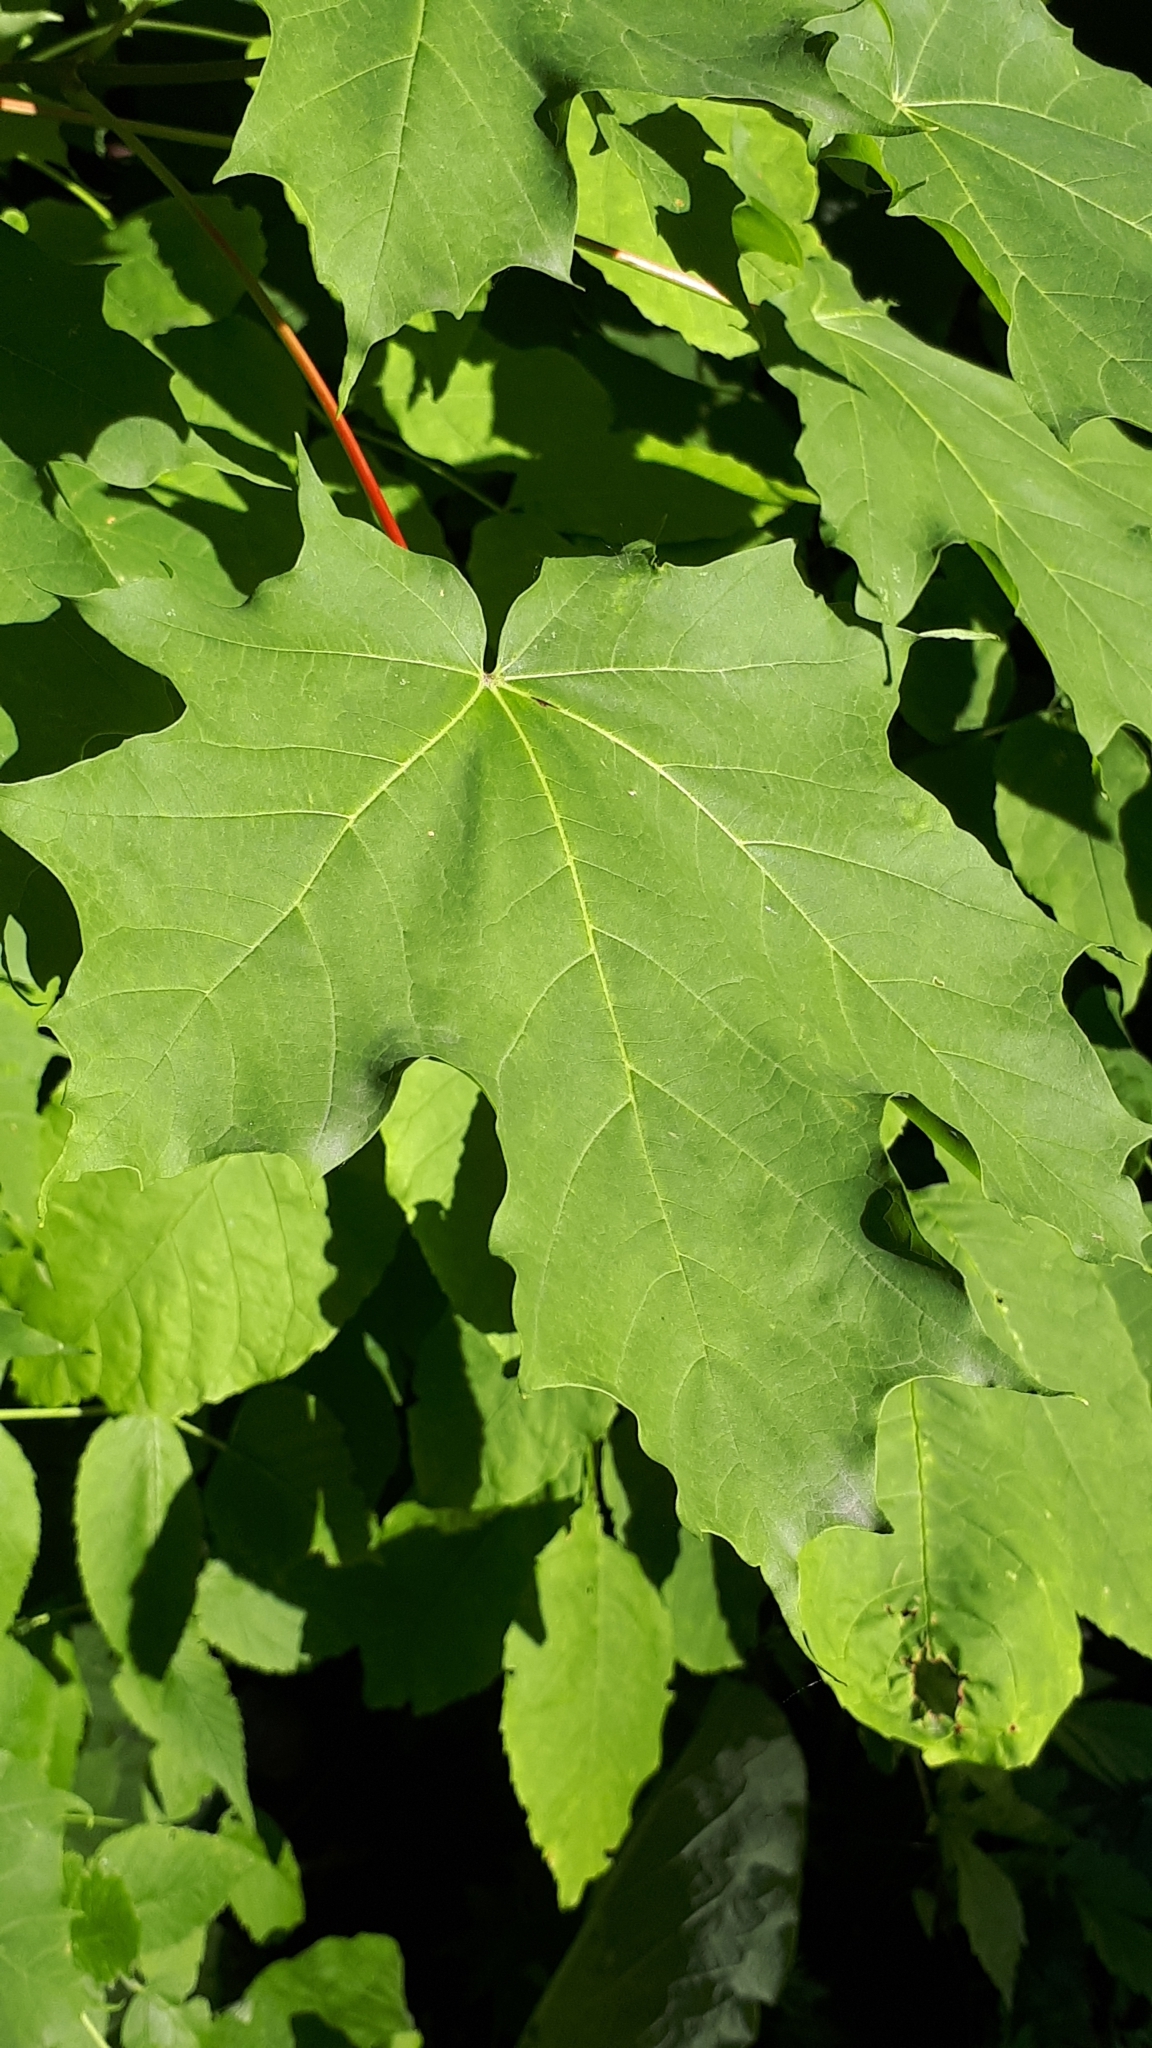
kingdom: Plantae
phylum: Tracheophyta
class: Magnoliopsida
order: Sapindales
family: Sapindaceae
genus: Acer
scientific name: Acer saccharum
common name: Sugar maple
